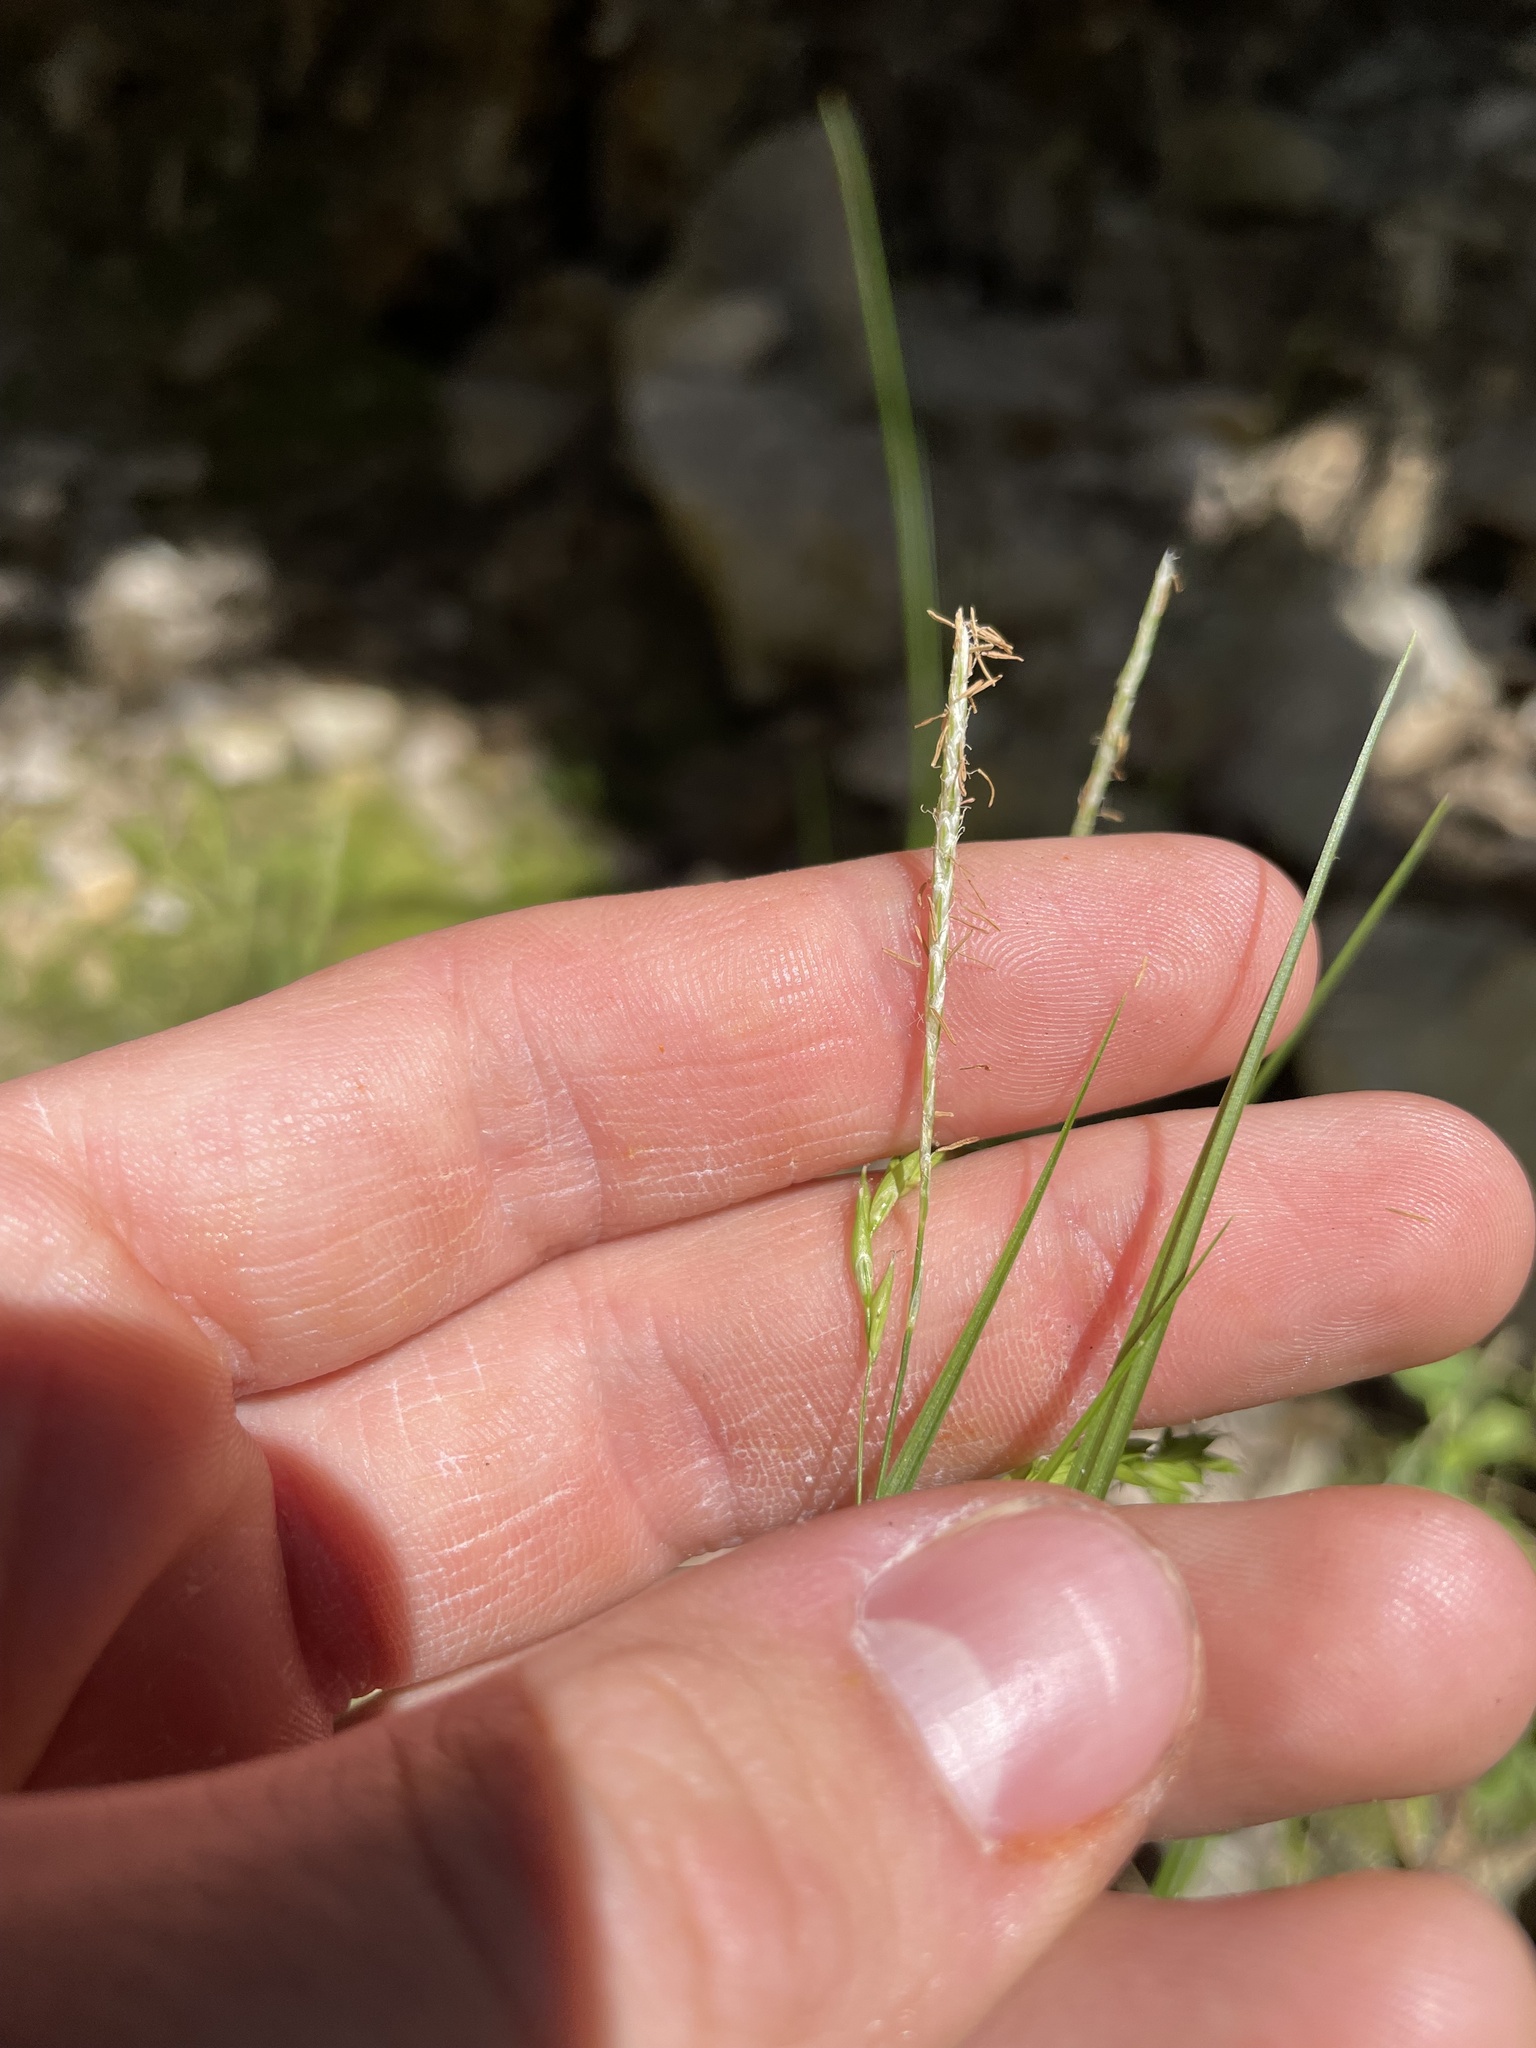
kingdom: Plantae
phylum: Tracheophyta
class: Liliopsida
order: Poales
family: Cyperaceae
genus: Carex
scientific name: Carex debilis
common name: White-edge sedge
